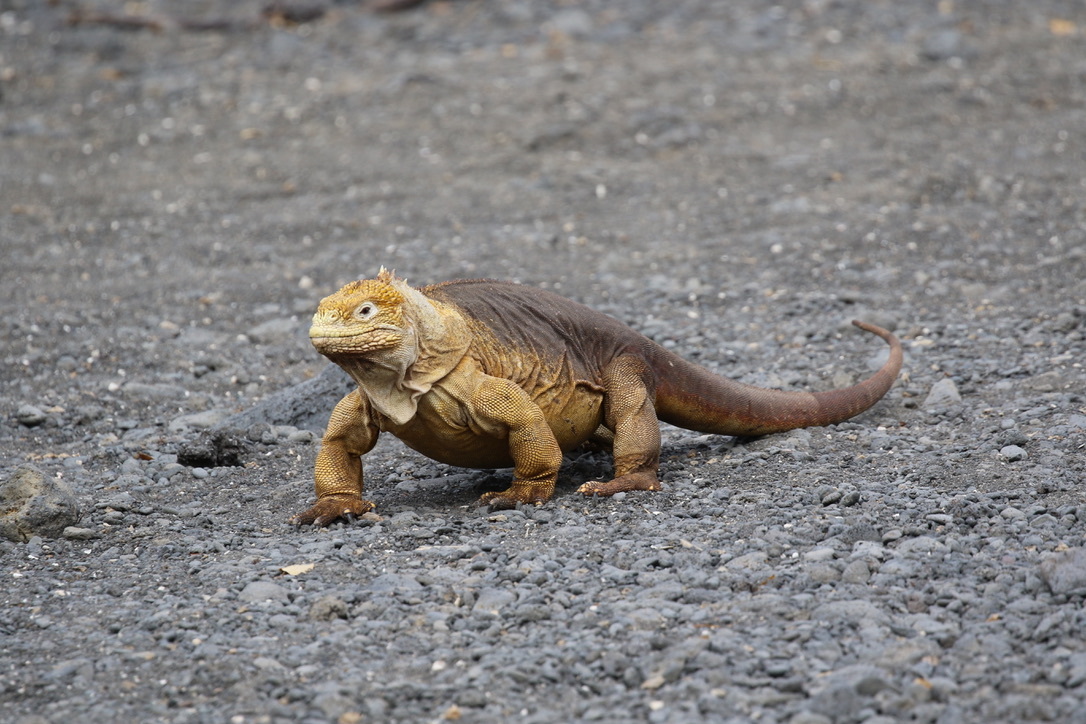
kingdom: Animalia
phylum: Chordata
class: Squamata
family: Iguanidae
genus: Conolophus
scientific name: Conolophus subcristatus
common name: Galapagos land iguana
